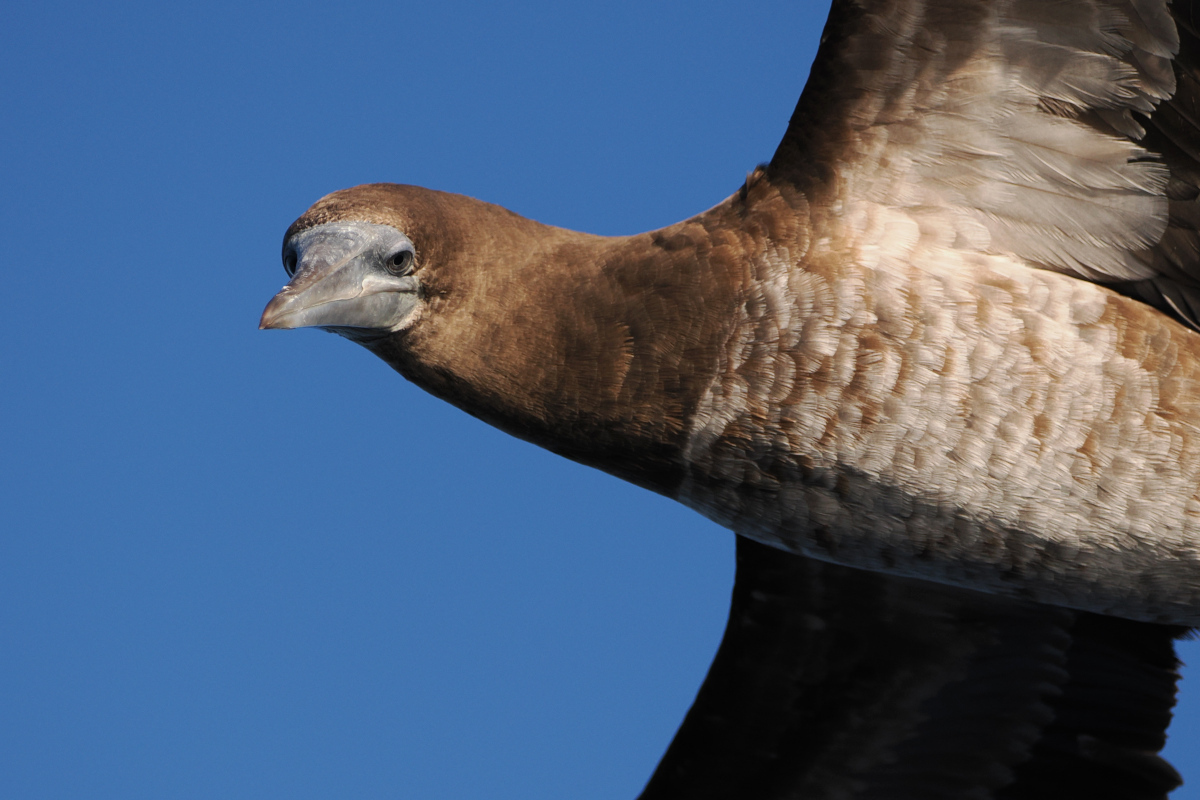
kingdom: Animalia
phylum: Chordata
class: Aves
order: Suliformes
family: Sulidae
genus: Sula
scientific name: Sula leucogaster
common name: Brown booby
